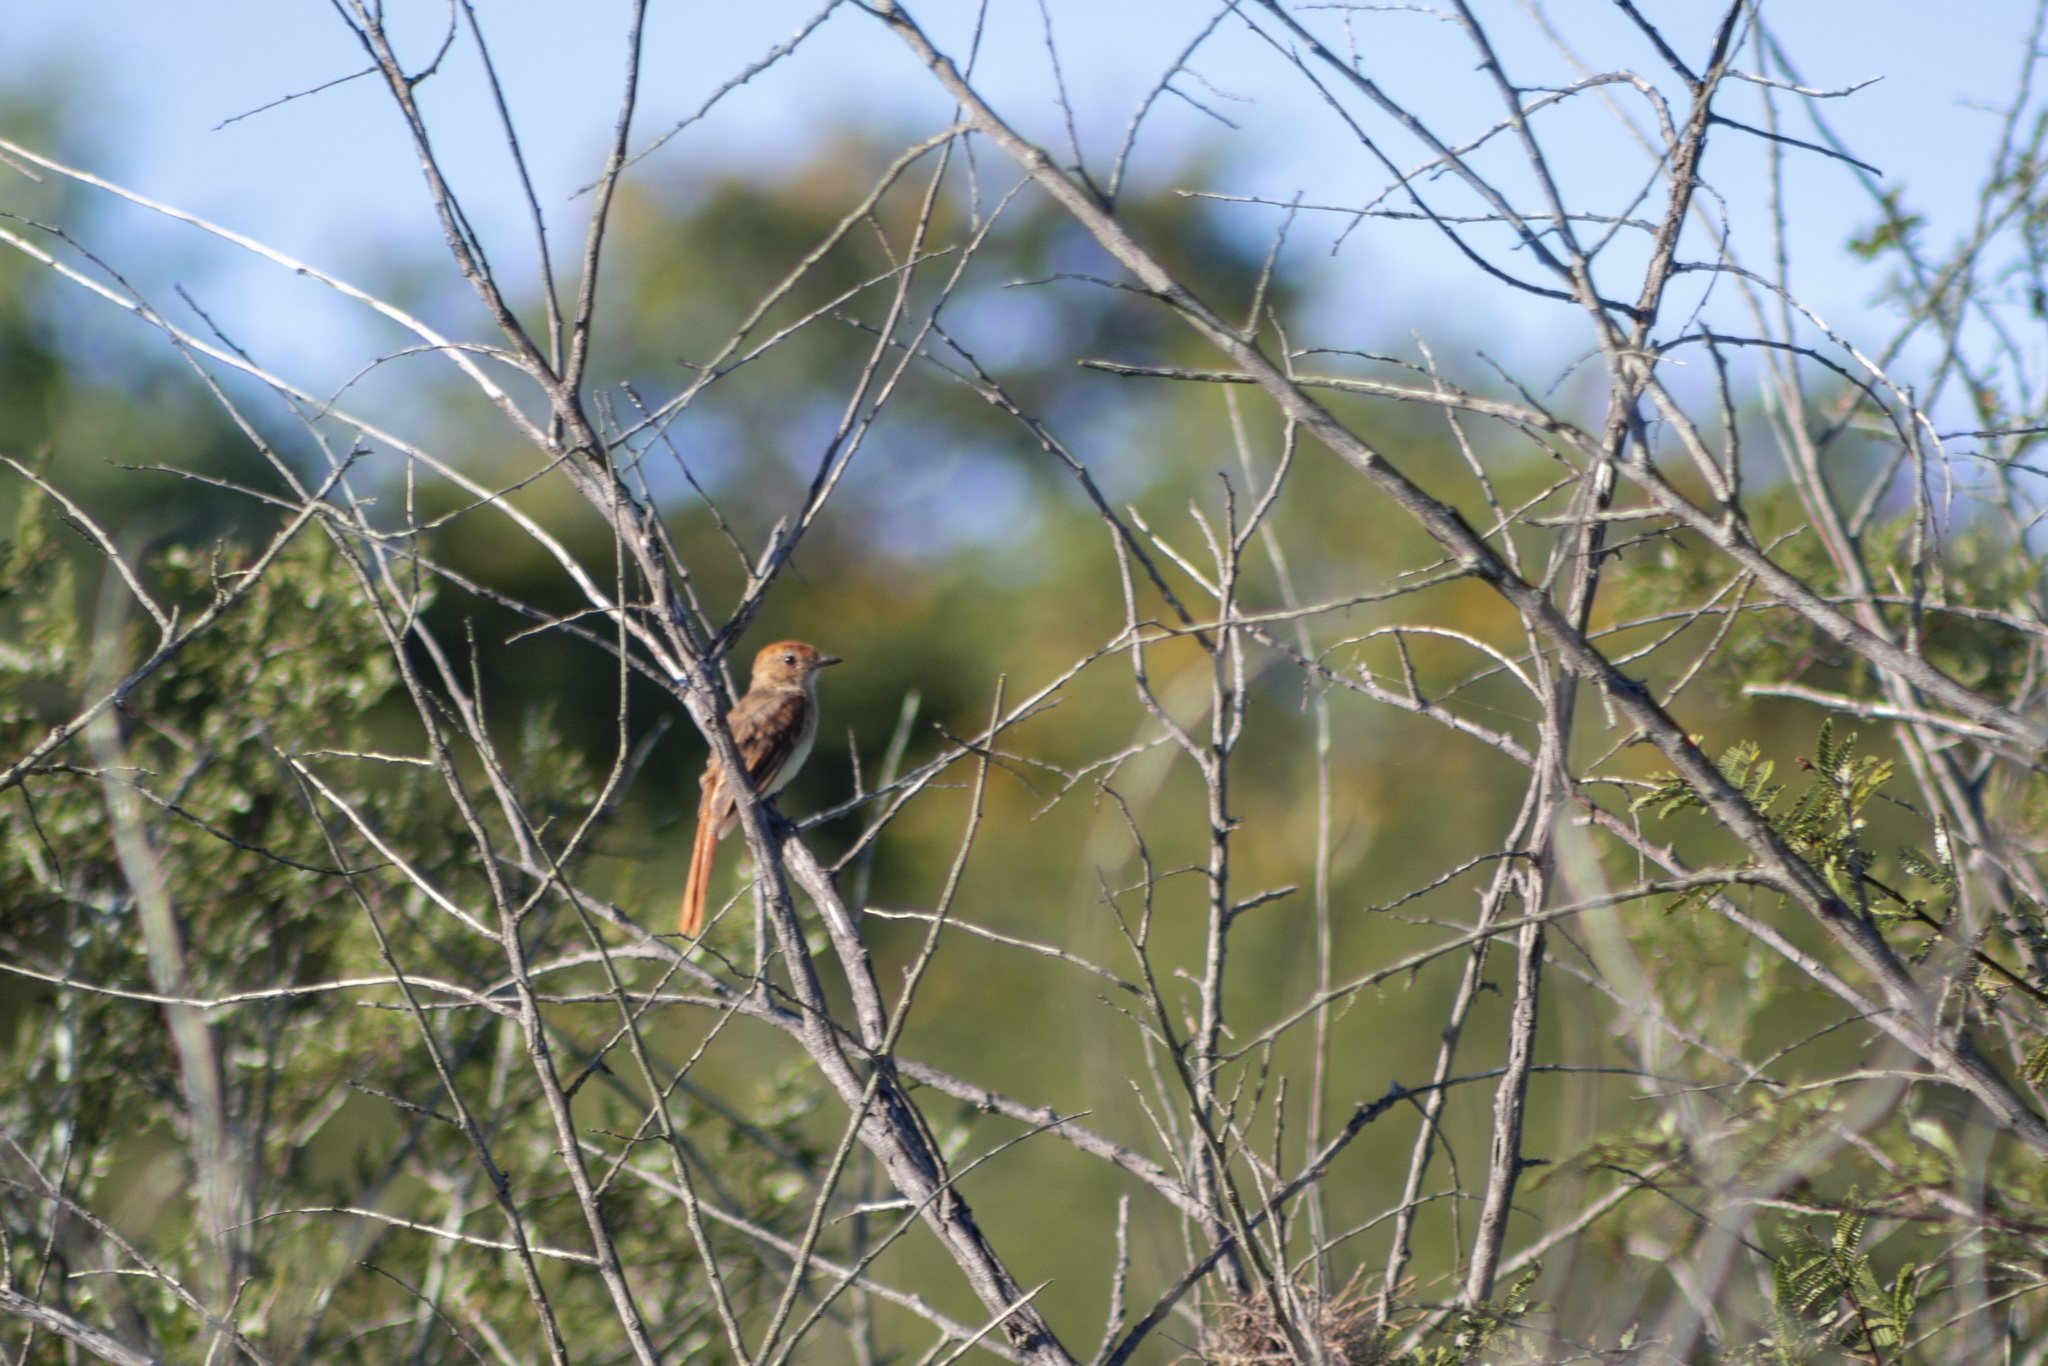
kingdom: Animalia
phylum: Chordata
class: Aves
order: Passeriformes
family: Tyrannidae
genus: Casiornis
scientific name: Casiornis fuscus
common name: Ash-throated casiornis
